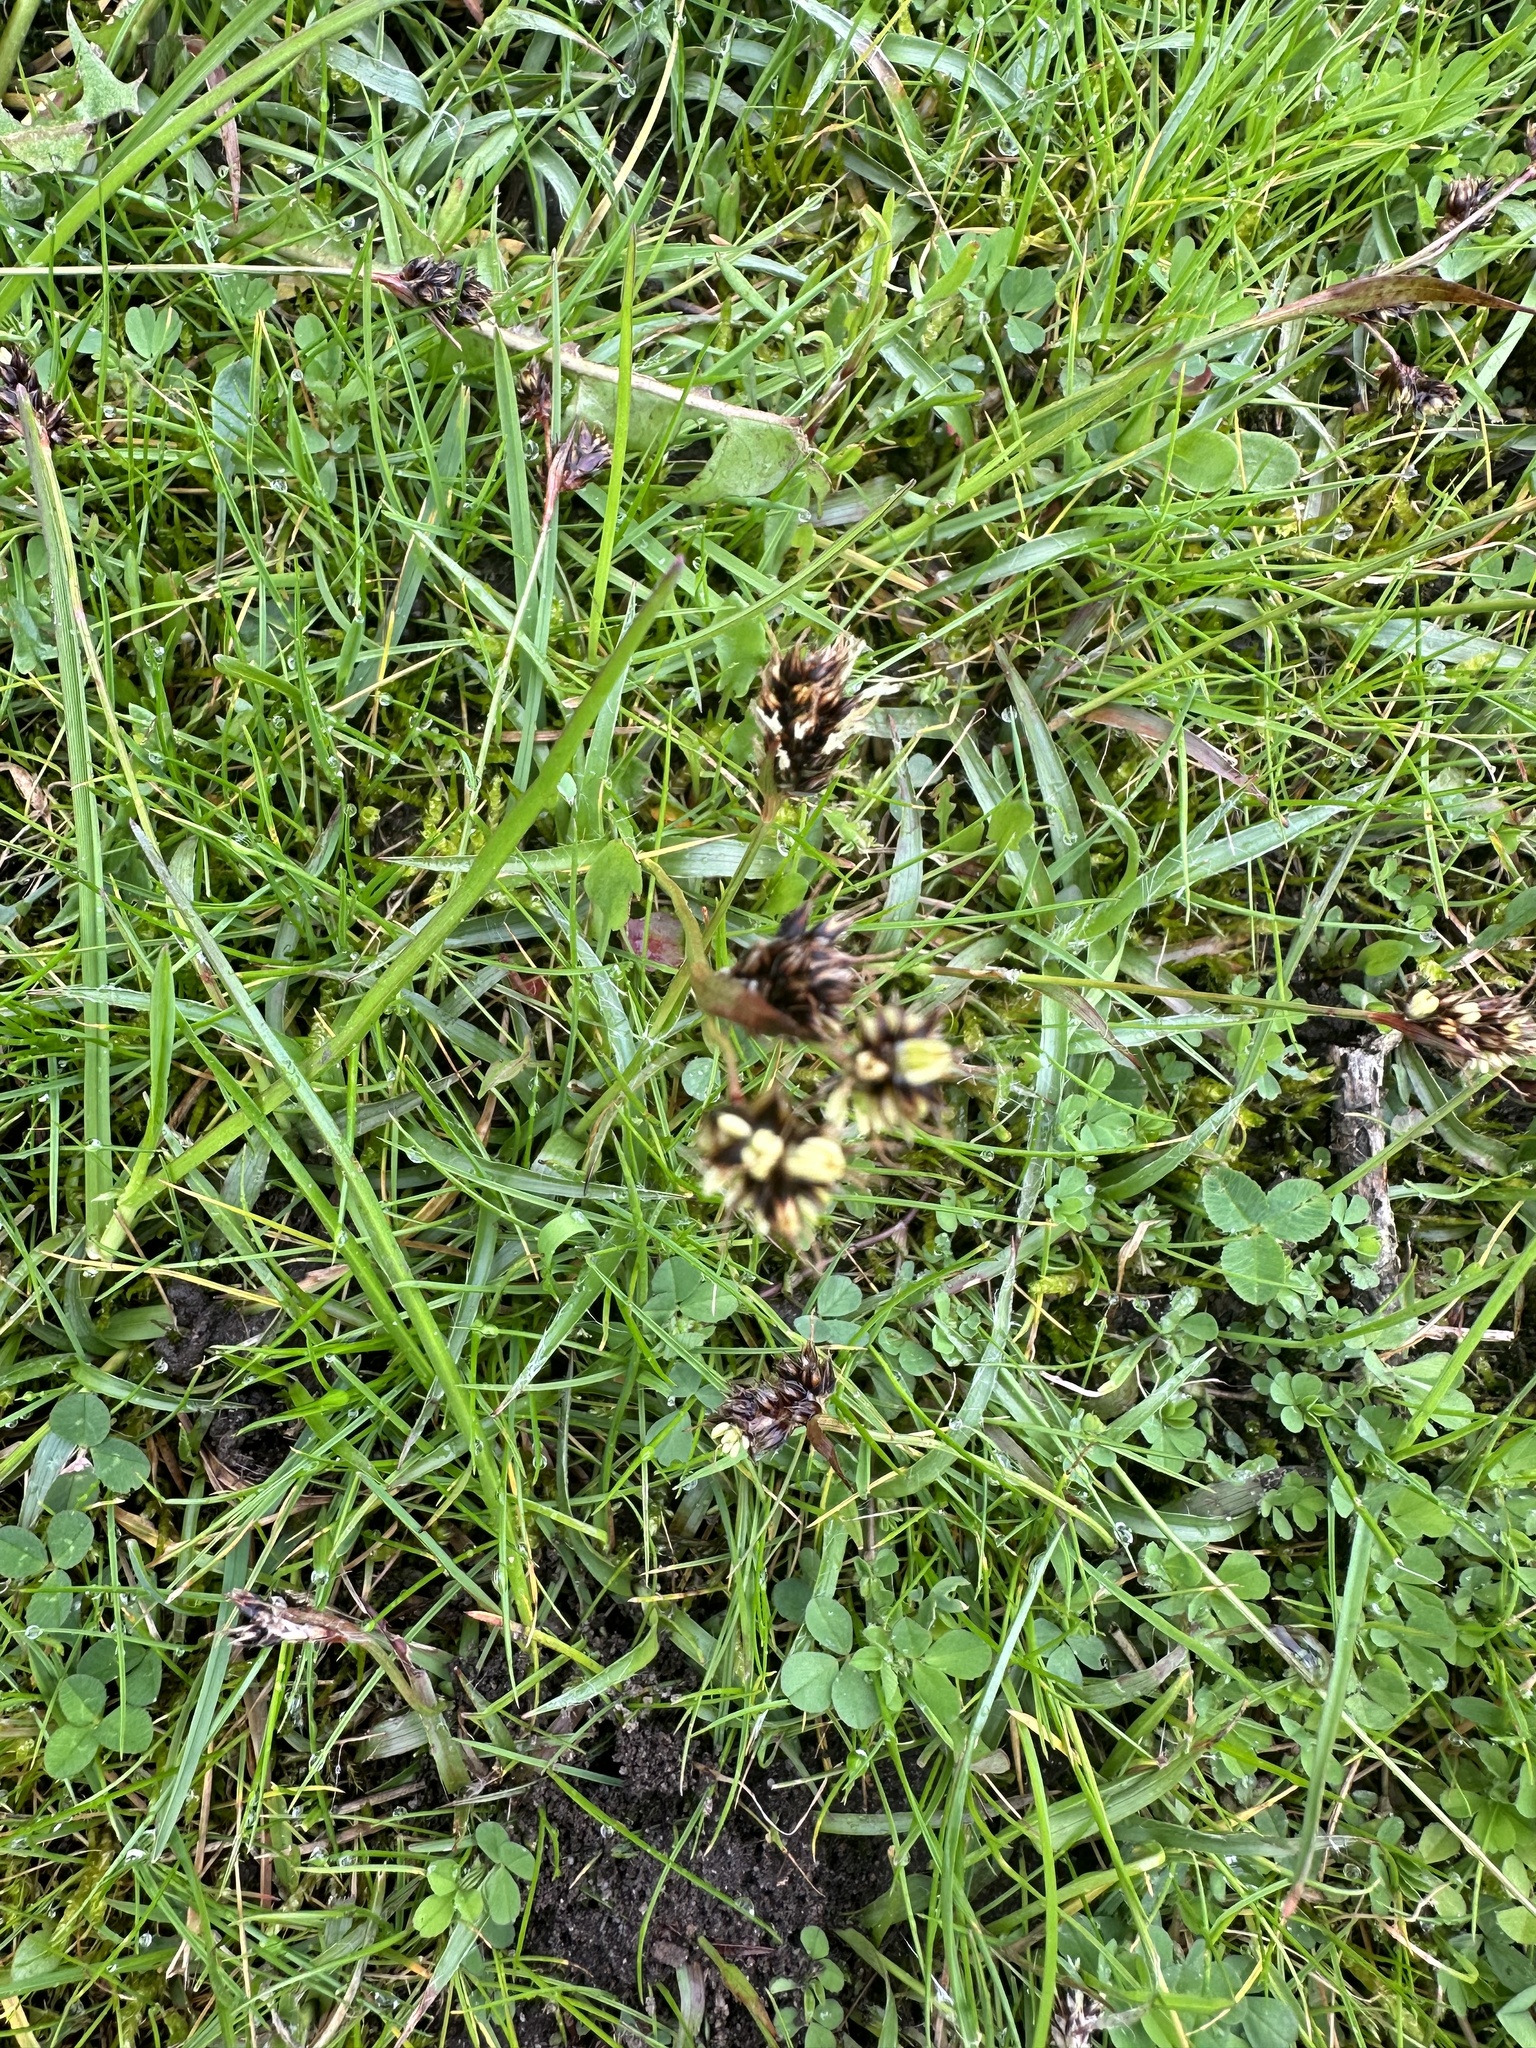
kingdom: Plantae
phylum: Tracheophyta
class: Liliopsida
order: Poales
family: Juncaceae
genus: Luzula
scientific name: Luzula campestris
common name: Field wood-rush
